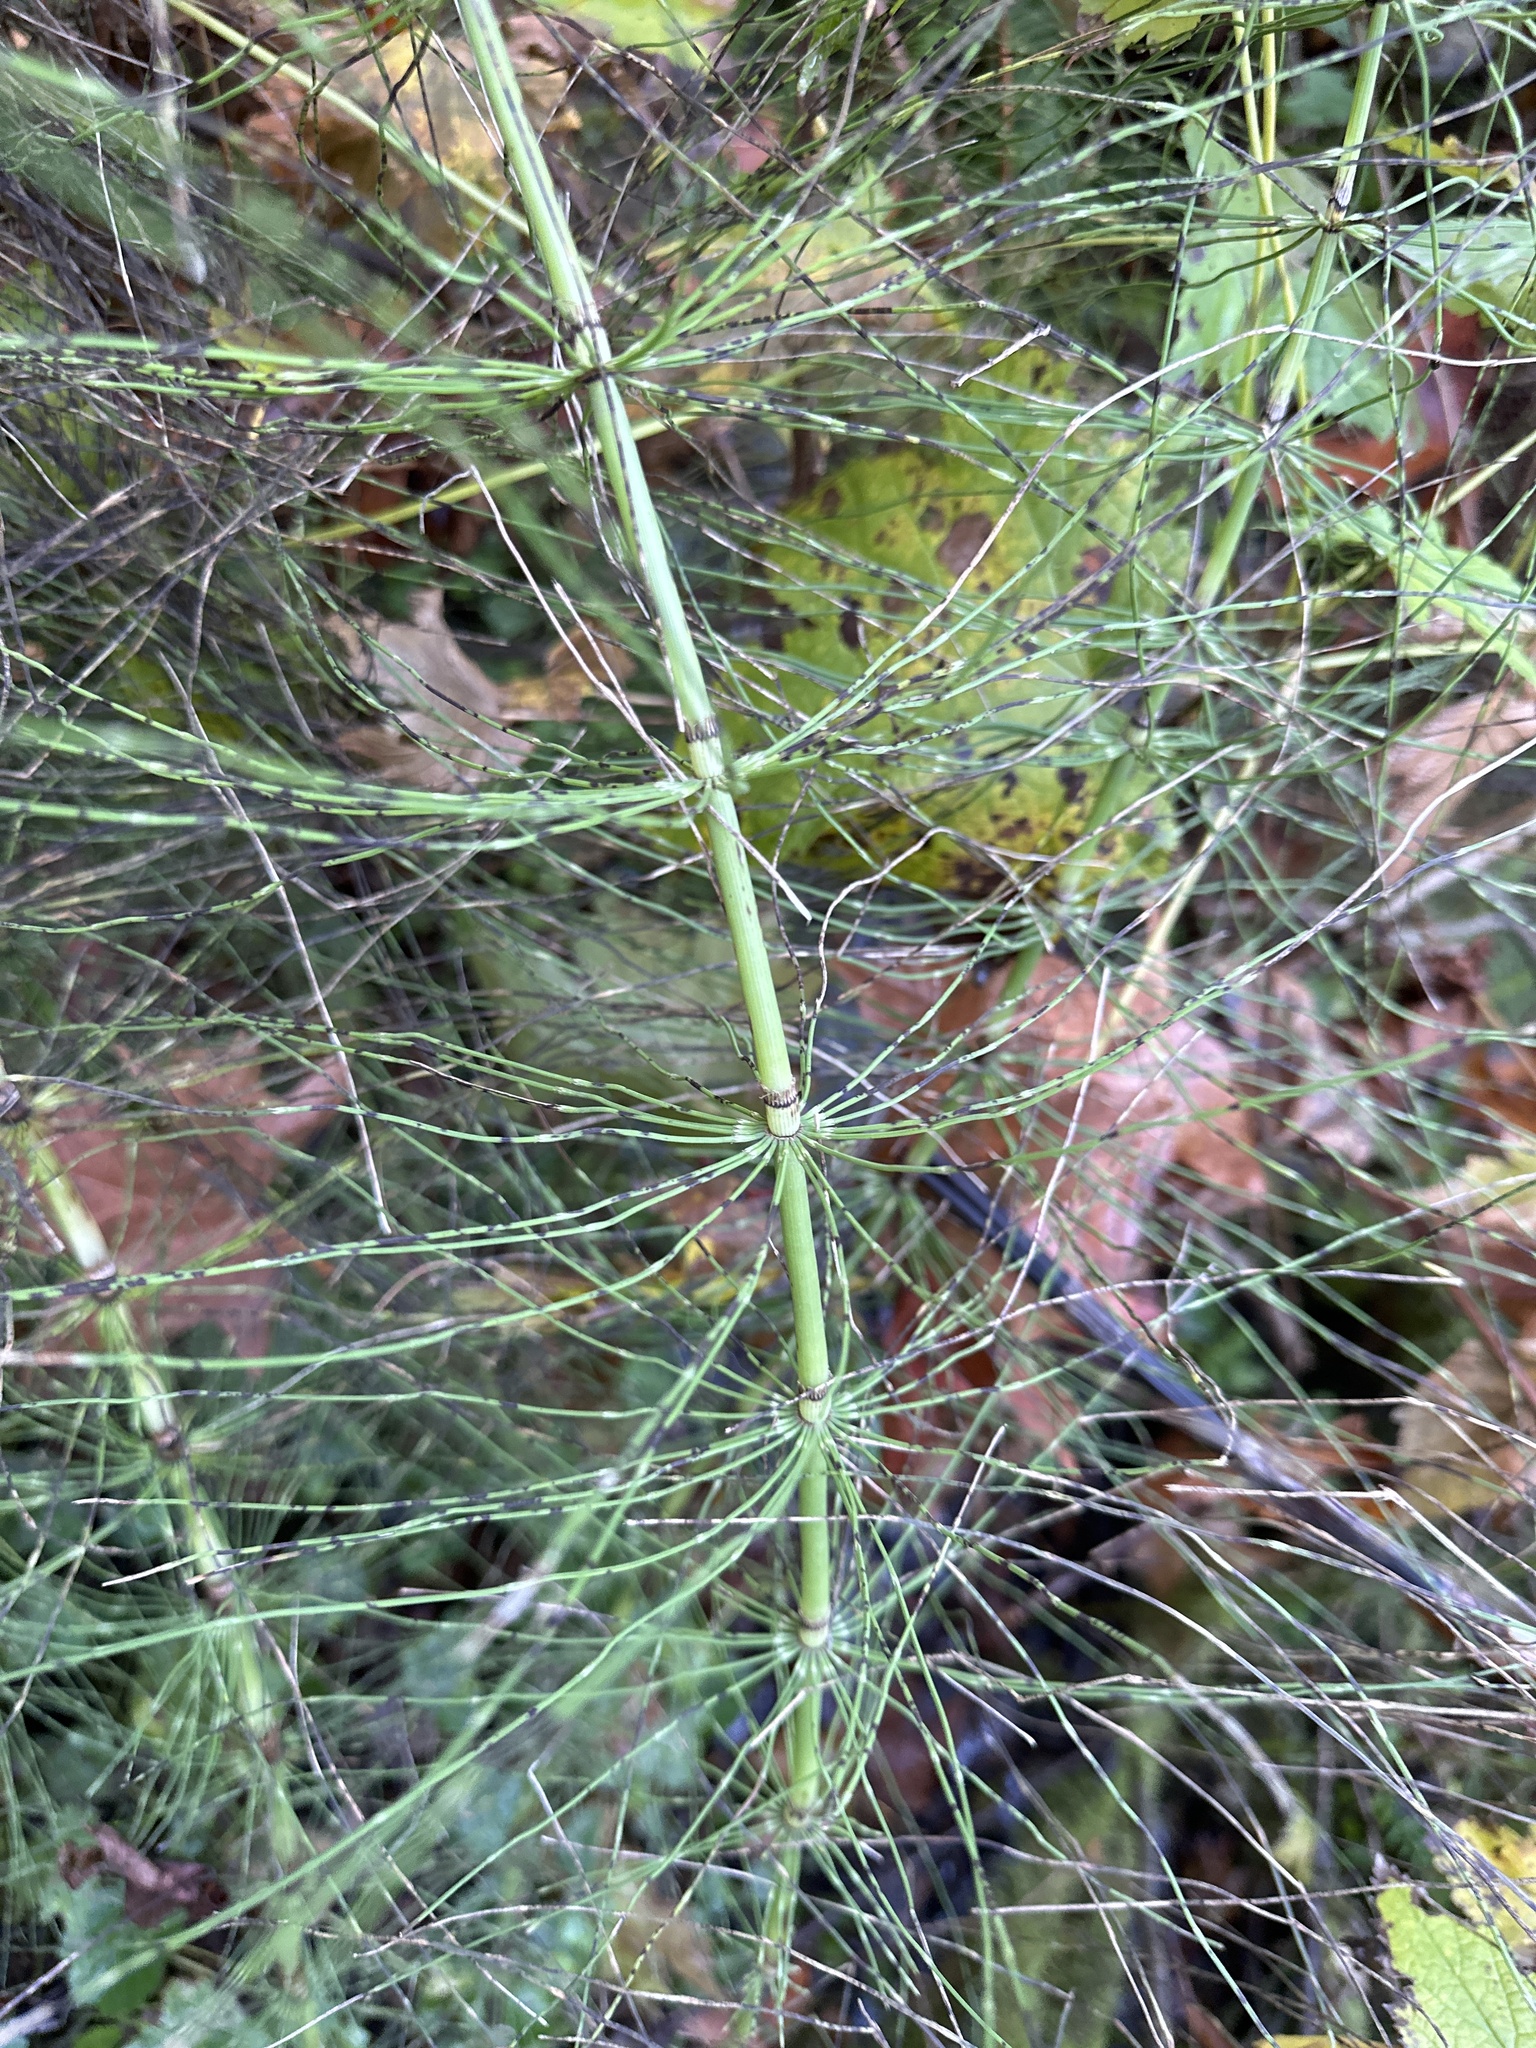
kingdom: Plantae
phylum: Tracheophyta
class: Polypodiopsida
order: Equisetales
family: Equisetaceae
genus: Equisetum
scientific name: Equisetum telmateia
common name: Great horsetail
